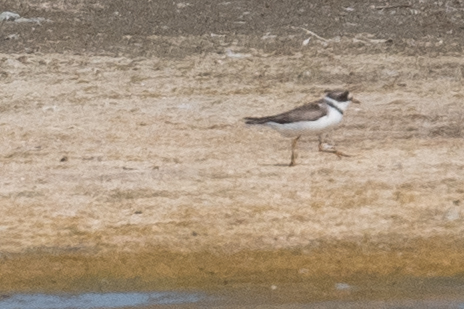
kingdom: Animalia
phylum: Chordata
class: Aves
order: Charadriiformes
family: Charadriidae
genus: Charadrius
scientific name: Charadrius semipalmatus
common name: Semipalmated plover
